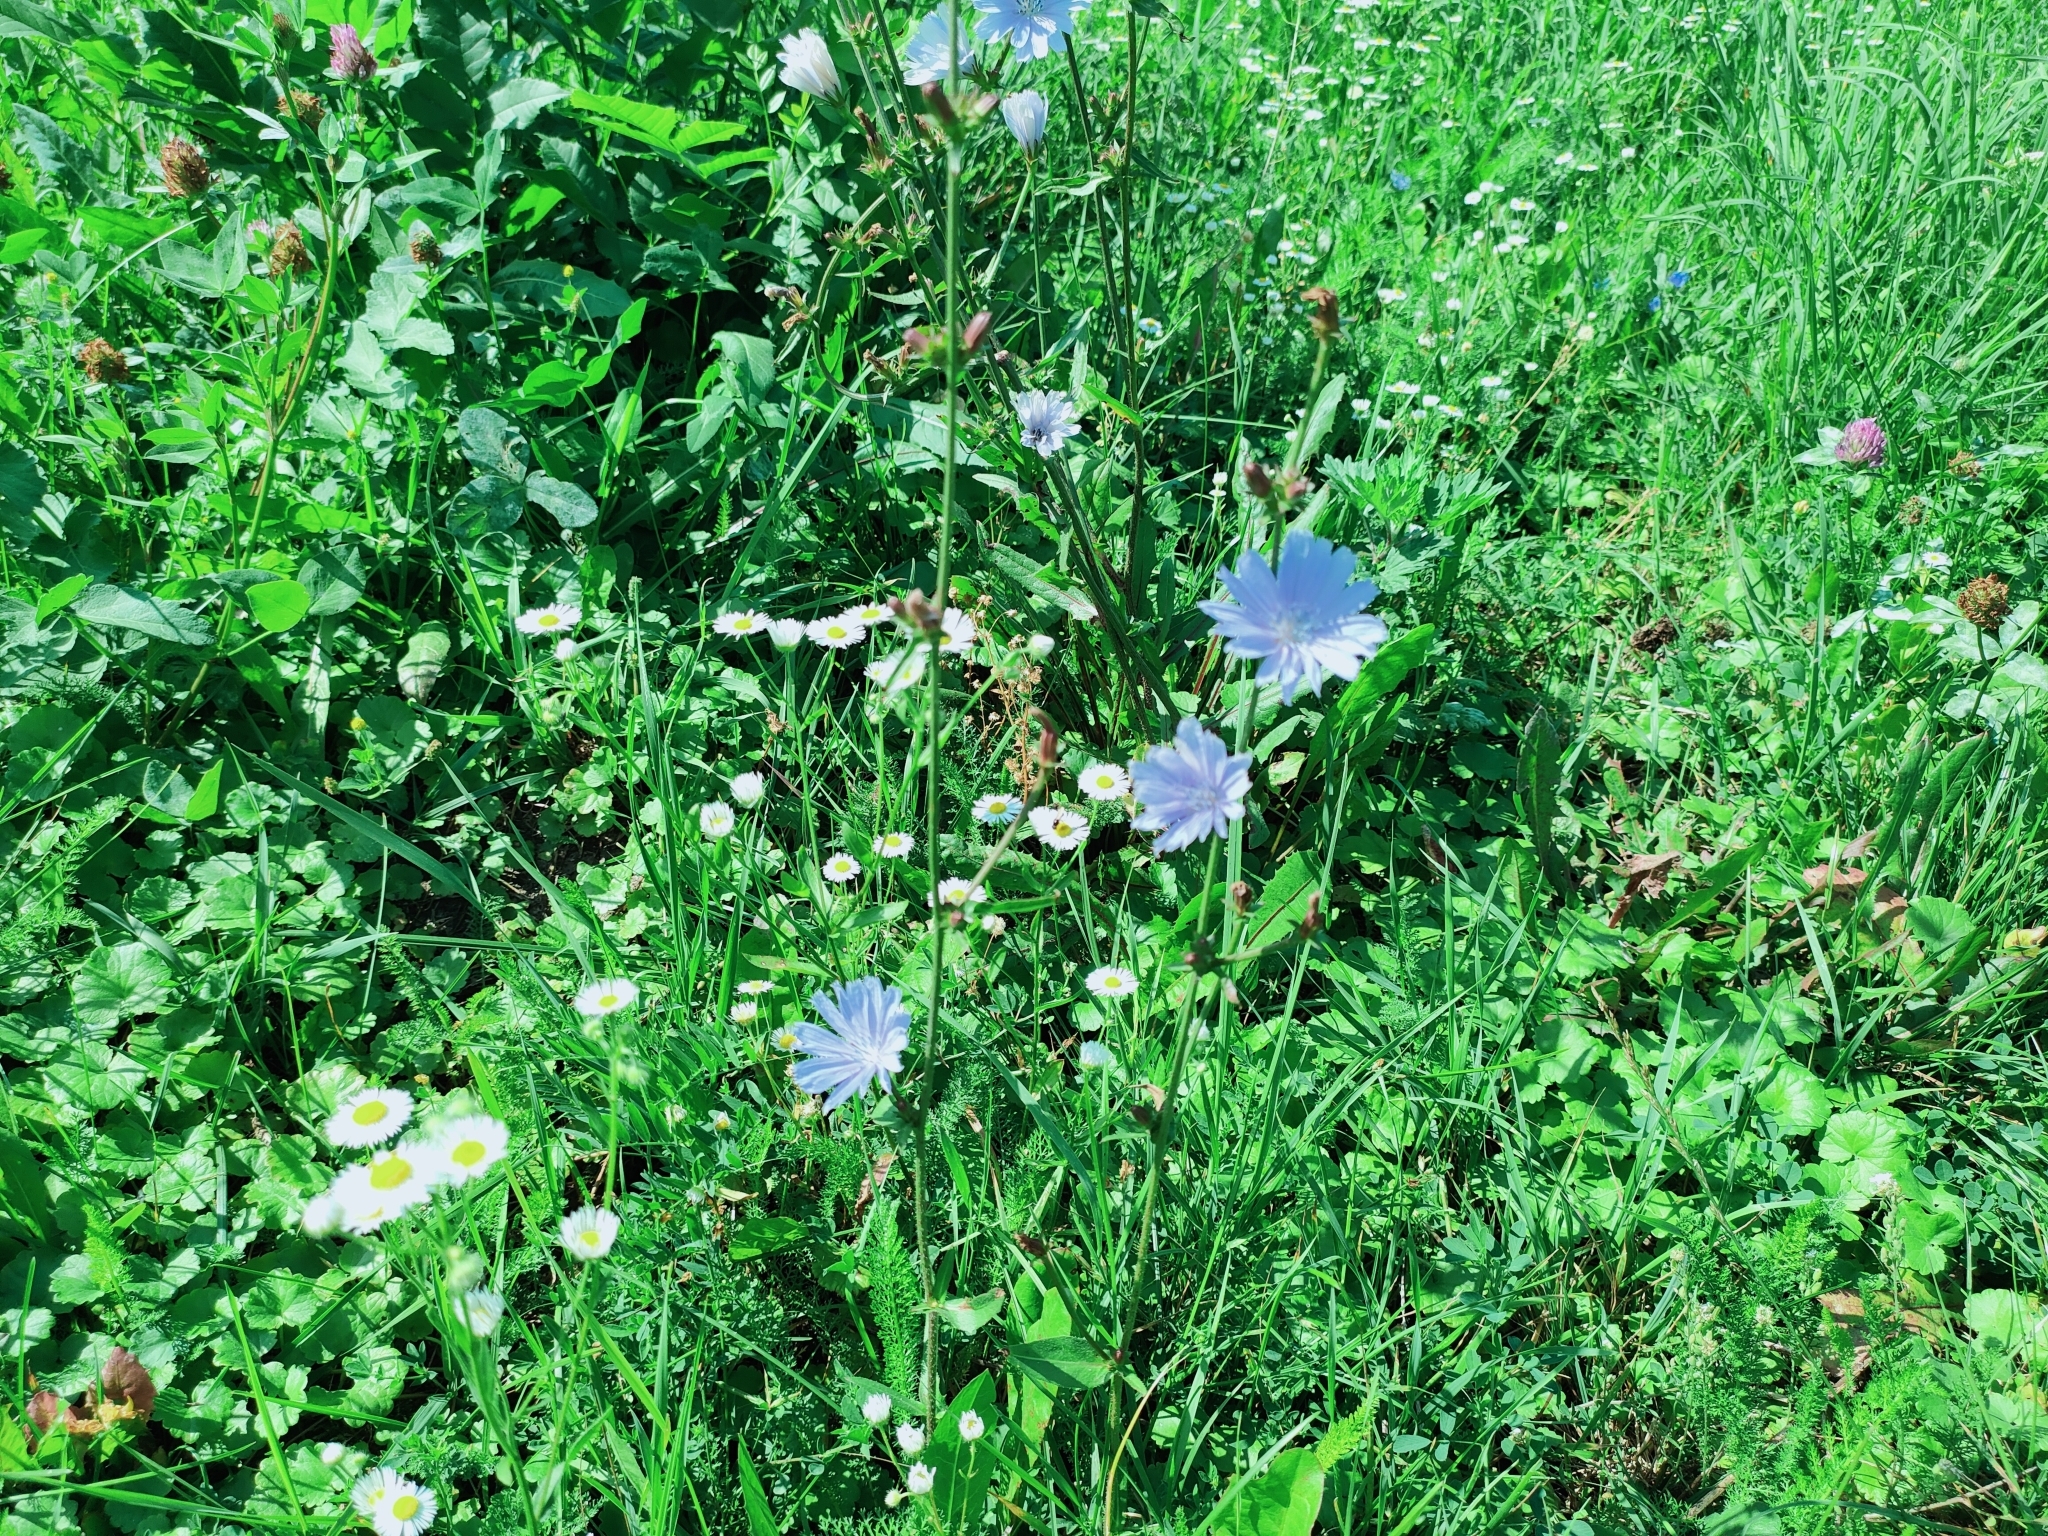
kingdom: Plantae
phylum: Tracheophyta
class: Magnoliopsida
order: Asterales
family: Asteraceae
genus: Cichorium
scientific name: Cichorium intybus
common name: Chicory
